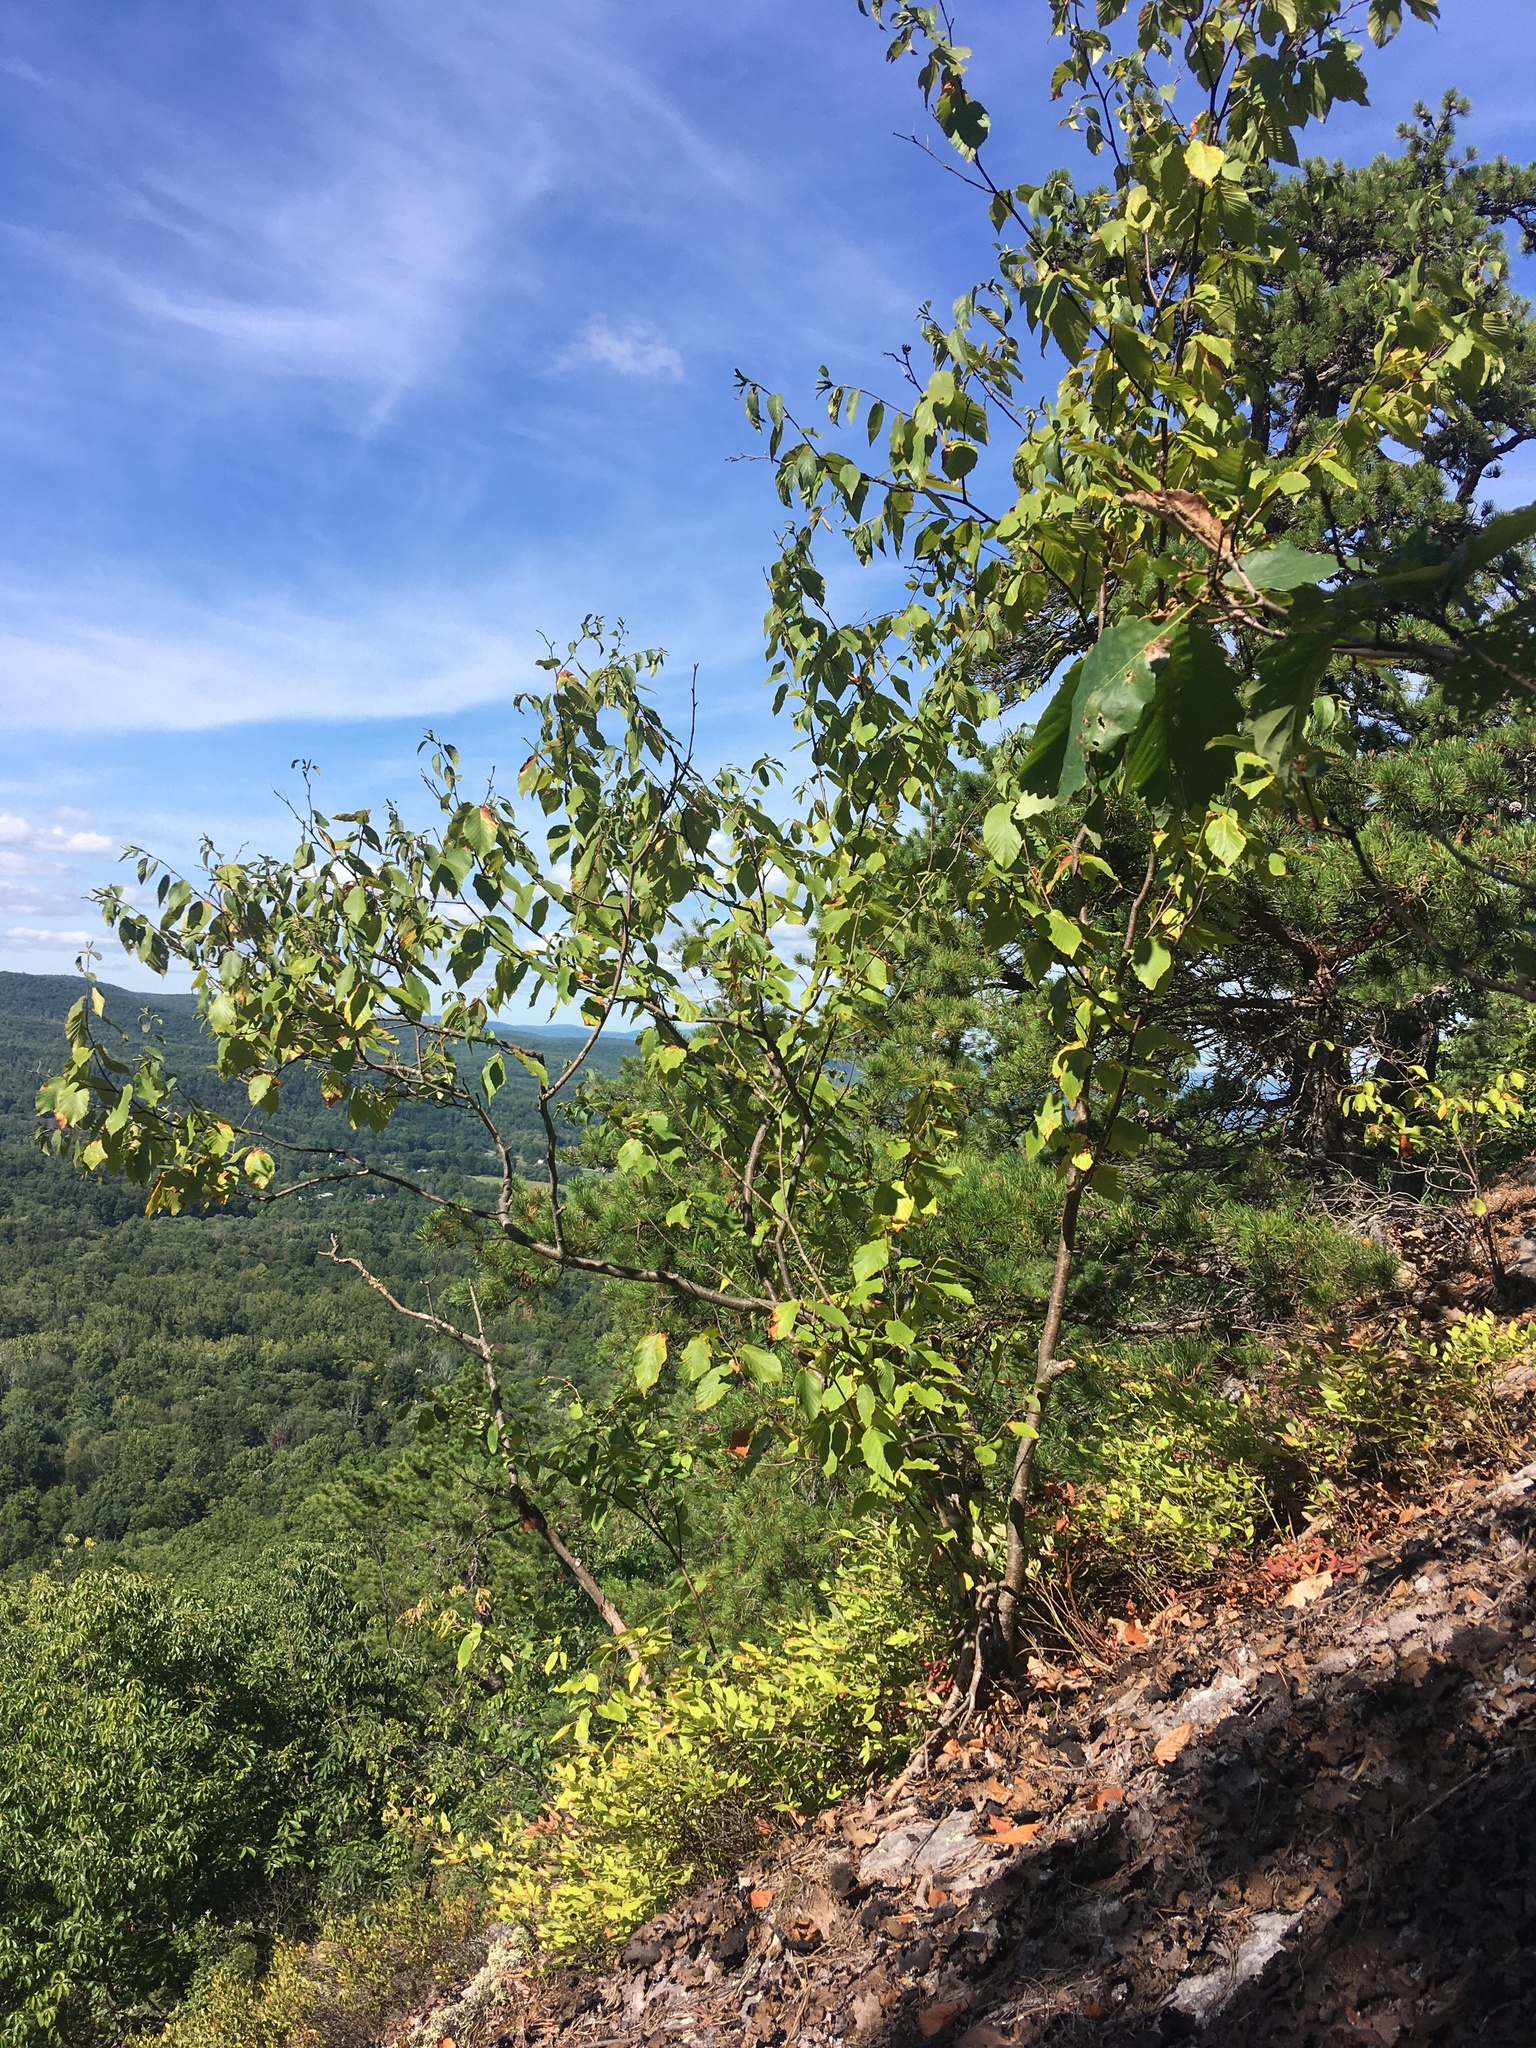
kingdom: Plantae
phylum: Tracheophyta
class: Magnoliopsida
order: Fagales
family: Betulaceae
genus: Betula
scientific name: Betula lenta
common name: Black birch
